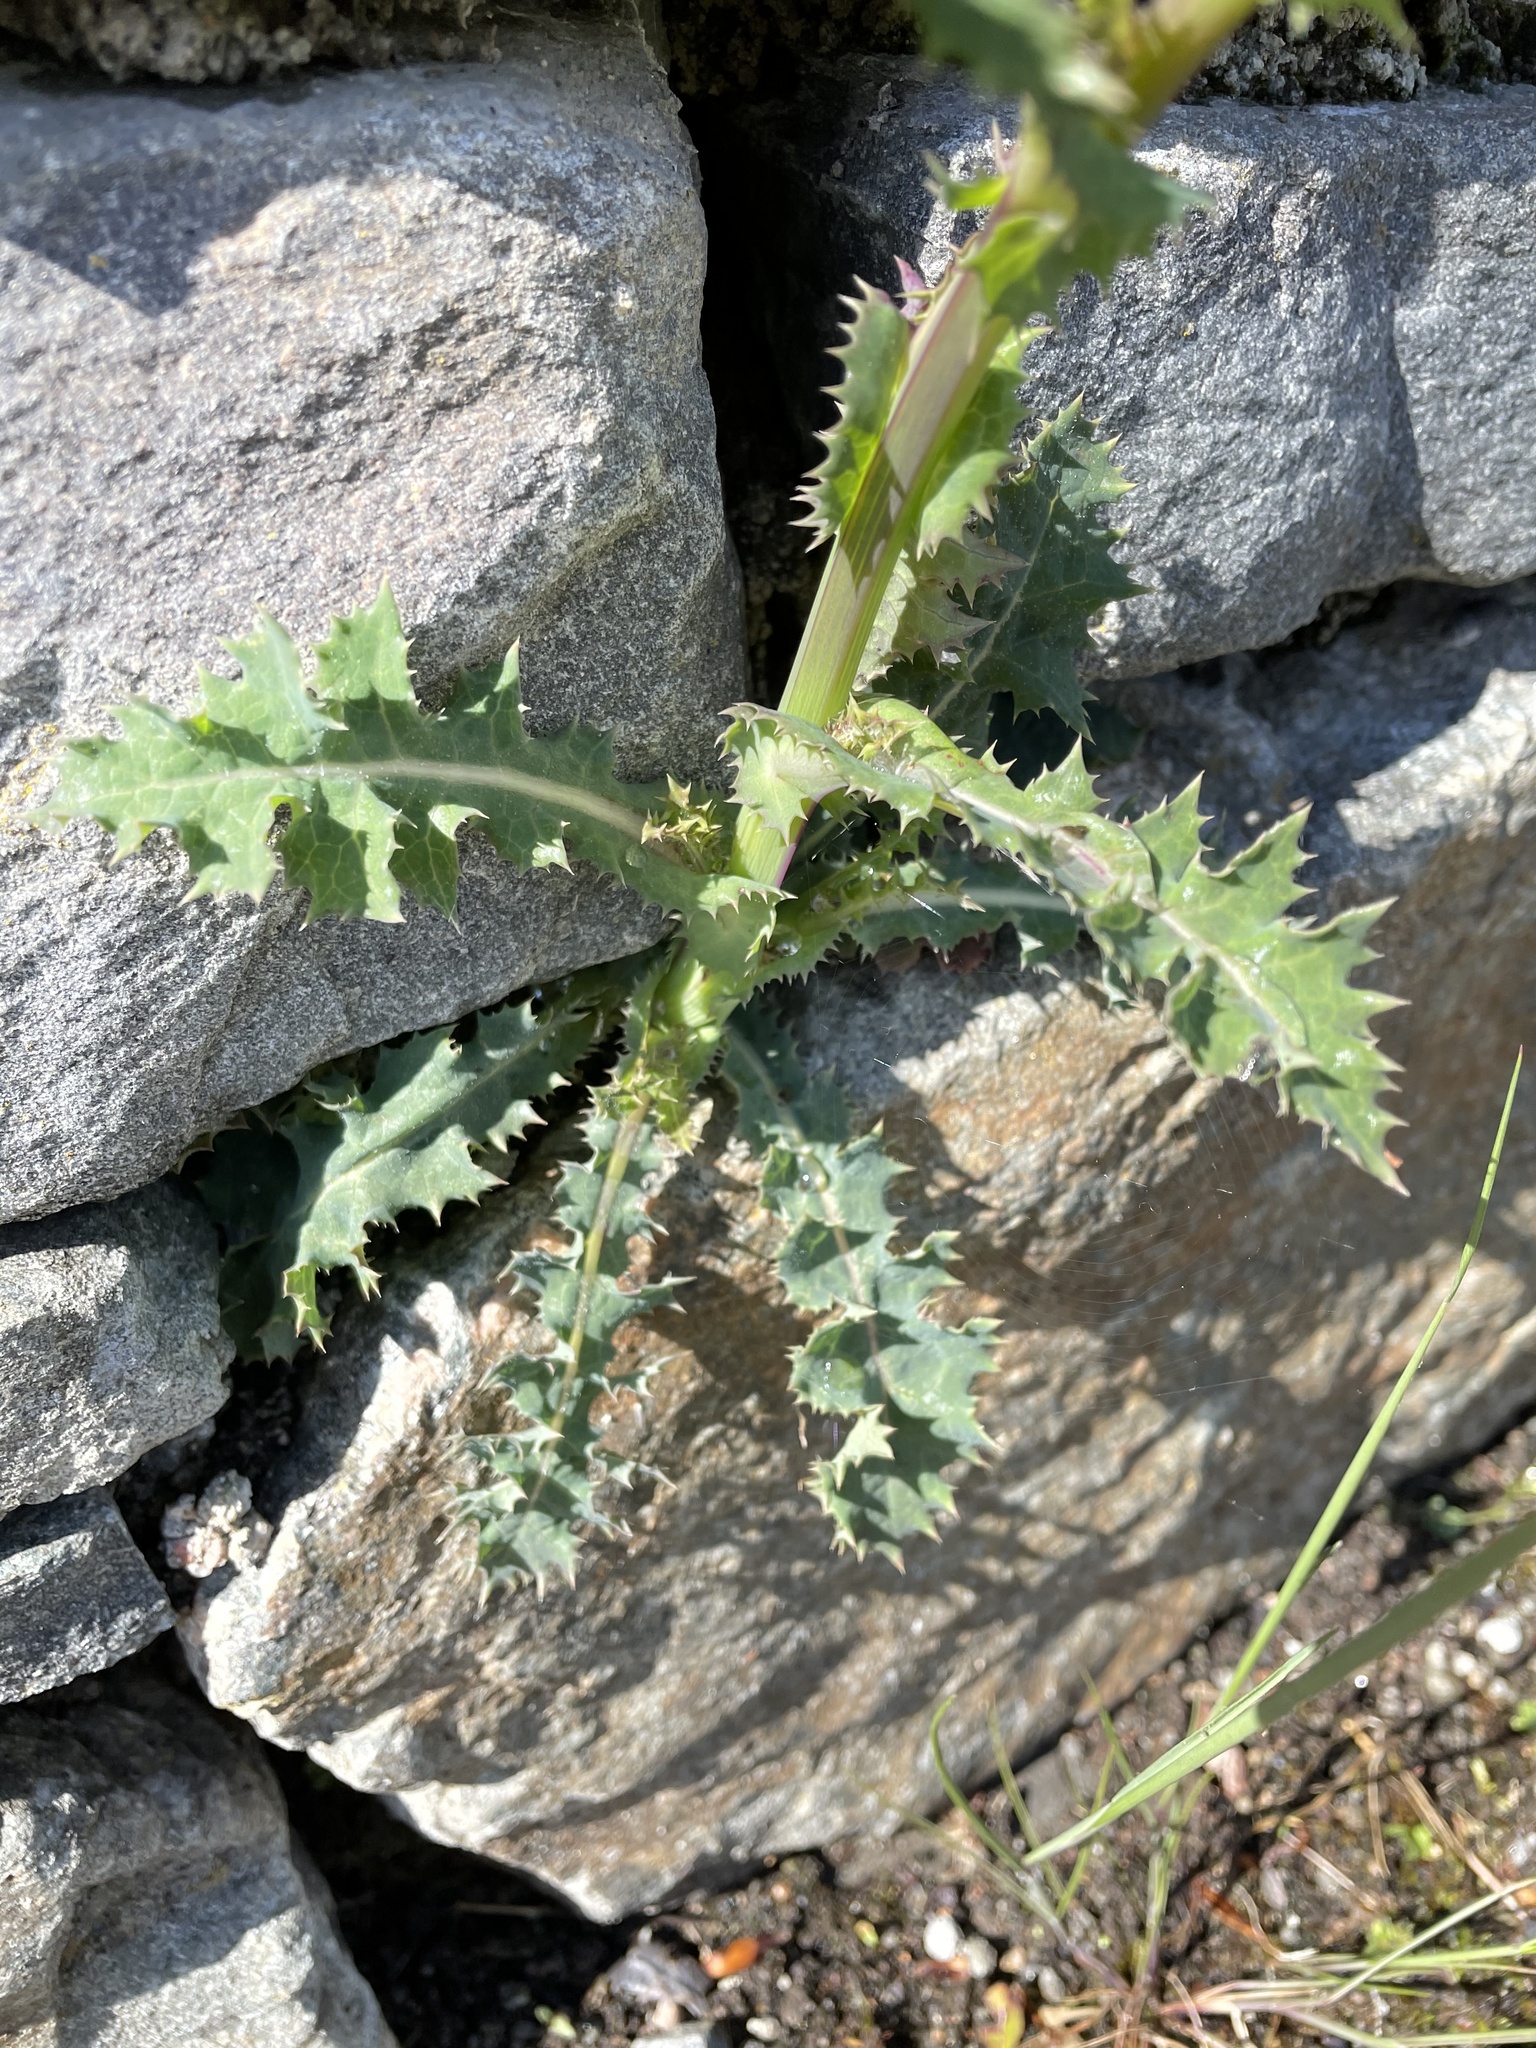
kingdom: Plantae
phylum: Tracheophyta
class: Magnoliopsida
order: Asterales
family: Asteraceae
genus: Sonchus
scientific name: Sonchus asper
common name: Prickly sow-thistle
